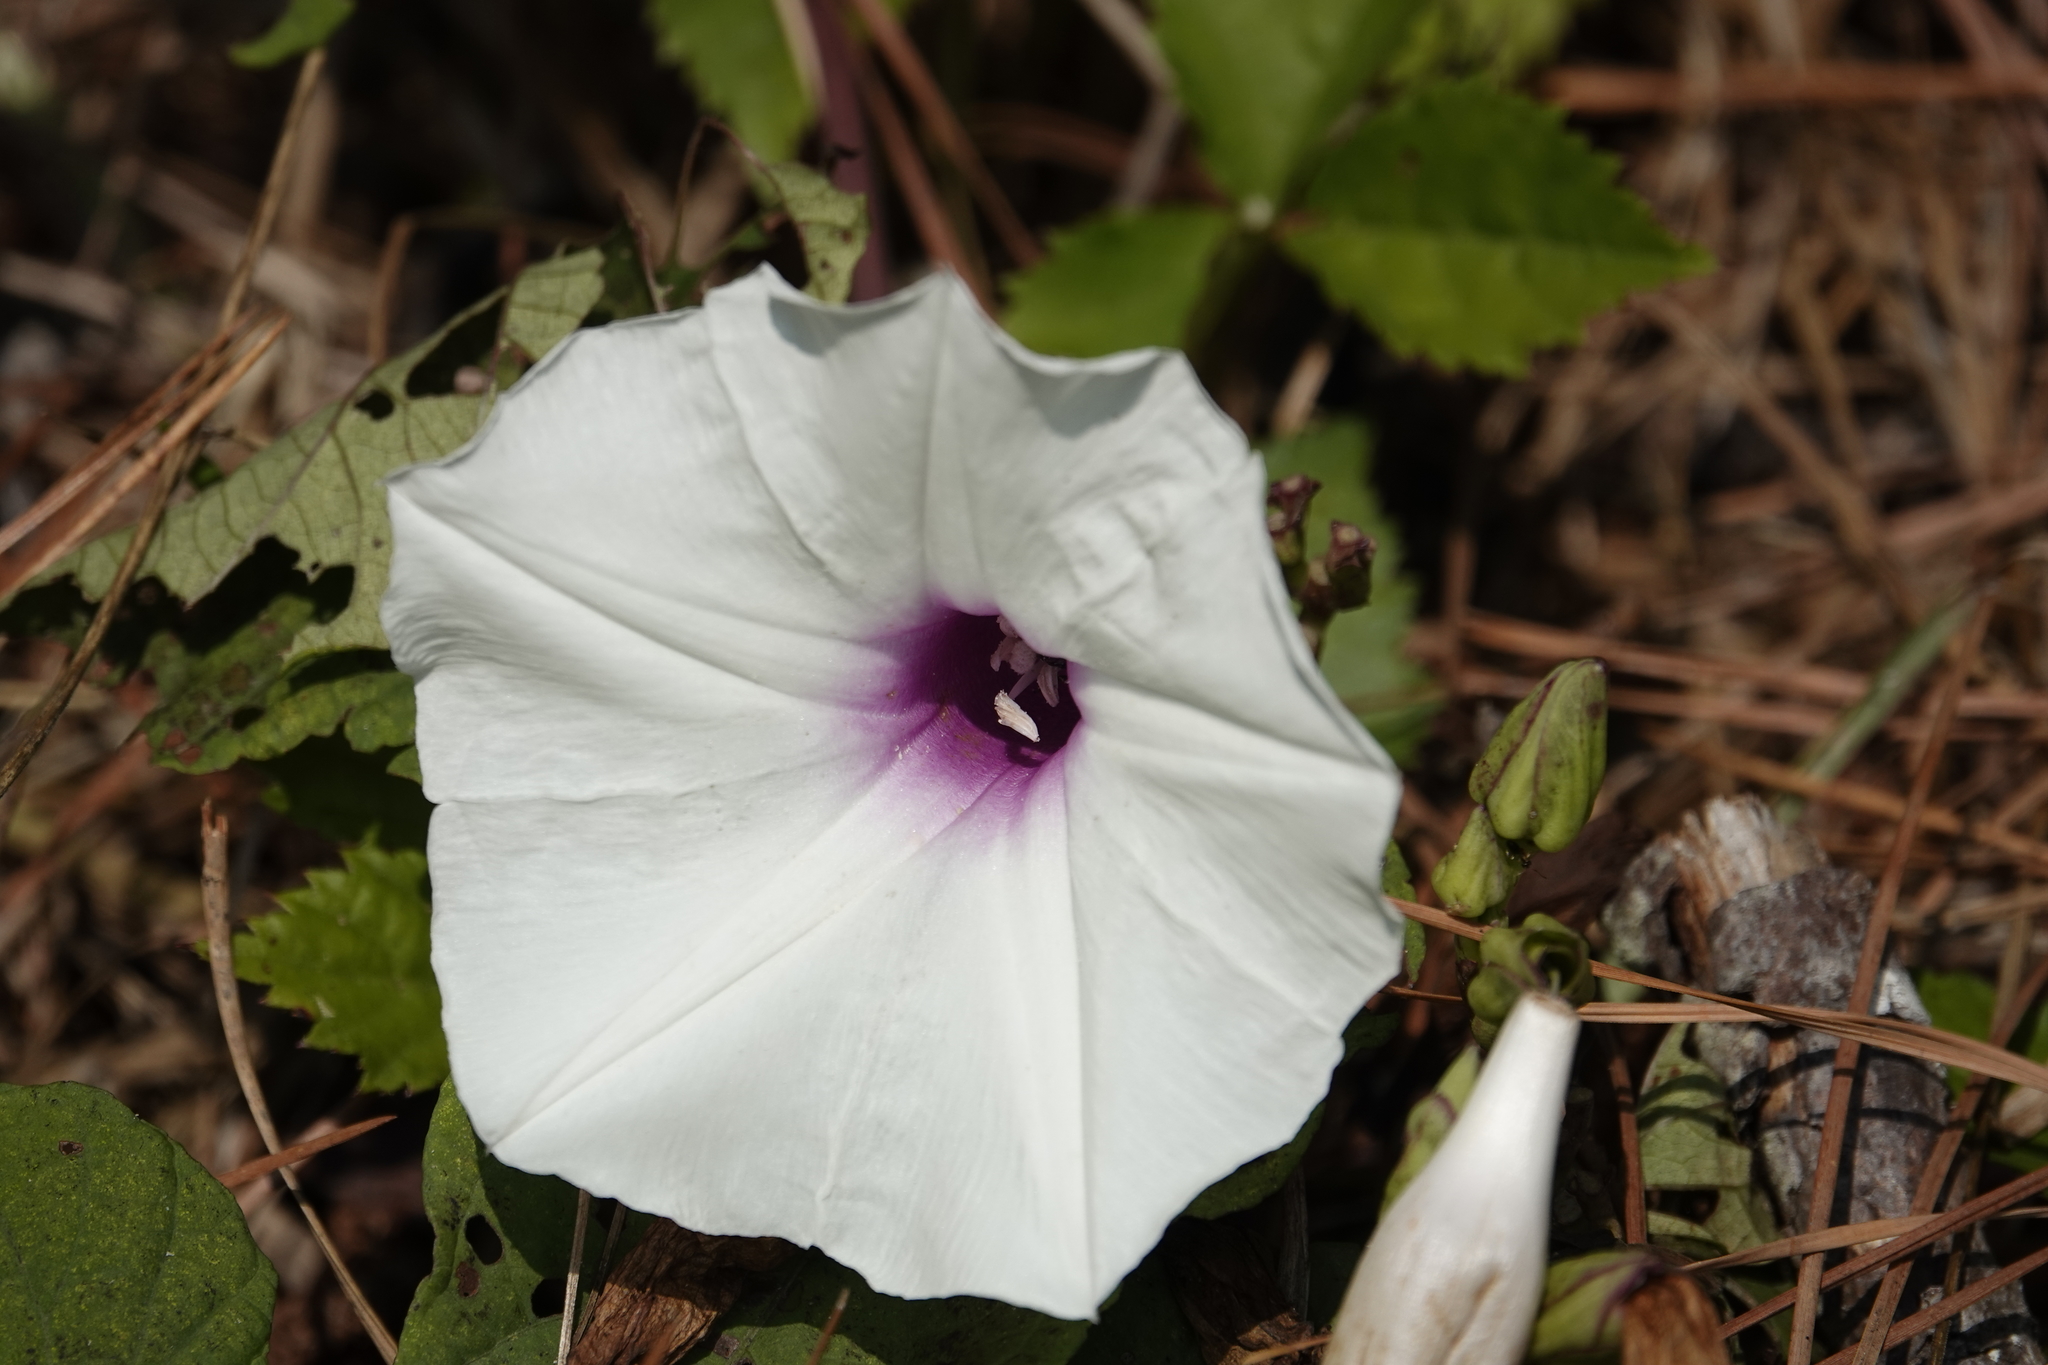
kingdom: Plantae
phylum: Tracheophyta
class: Magnoliopsida
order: Solanales
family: Convolvulaceae
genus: Ipomoea
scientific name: Ipomoea pandurata
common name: Man-of-the-earth
